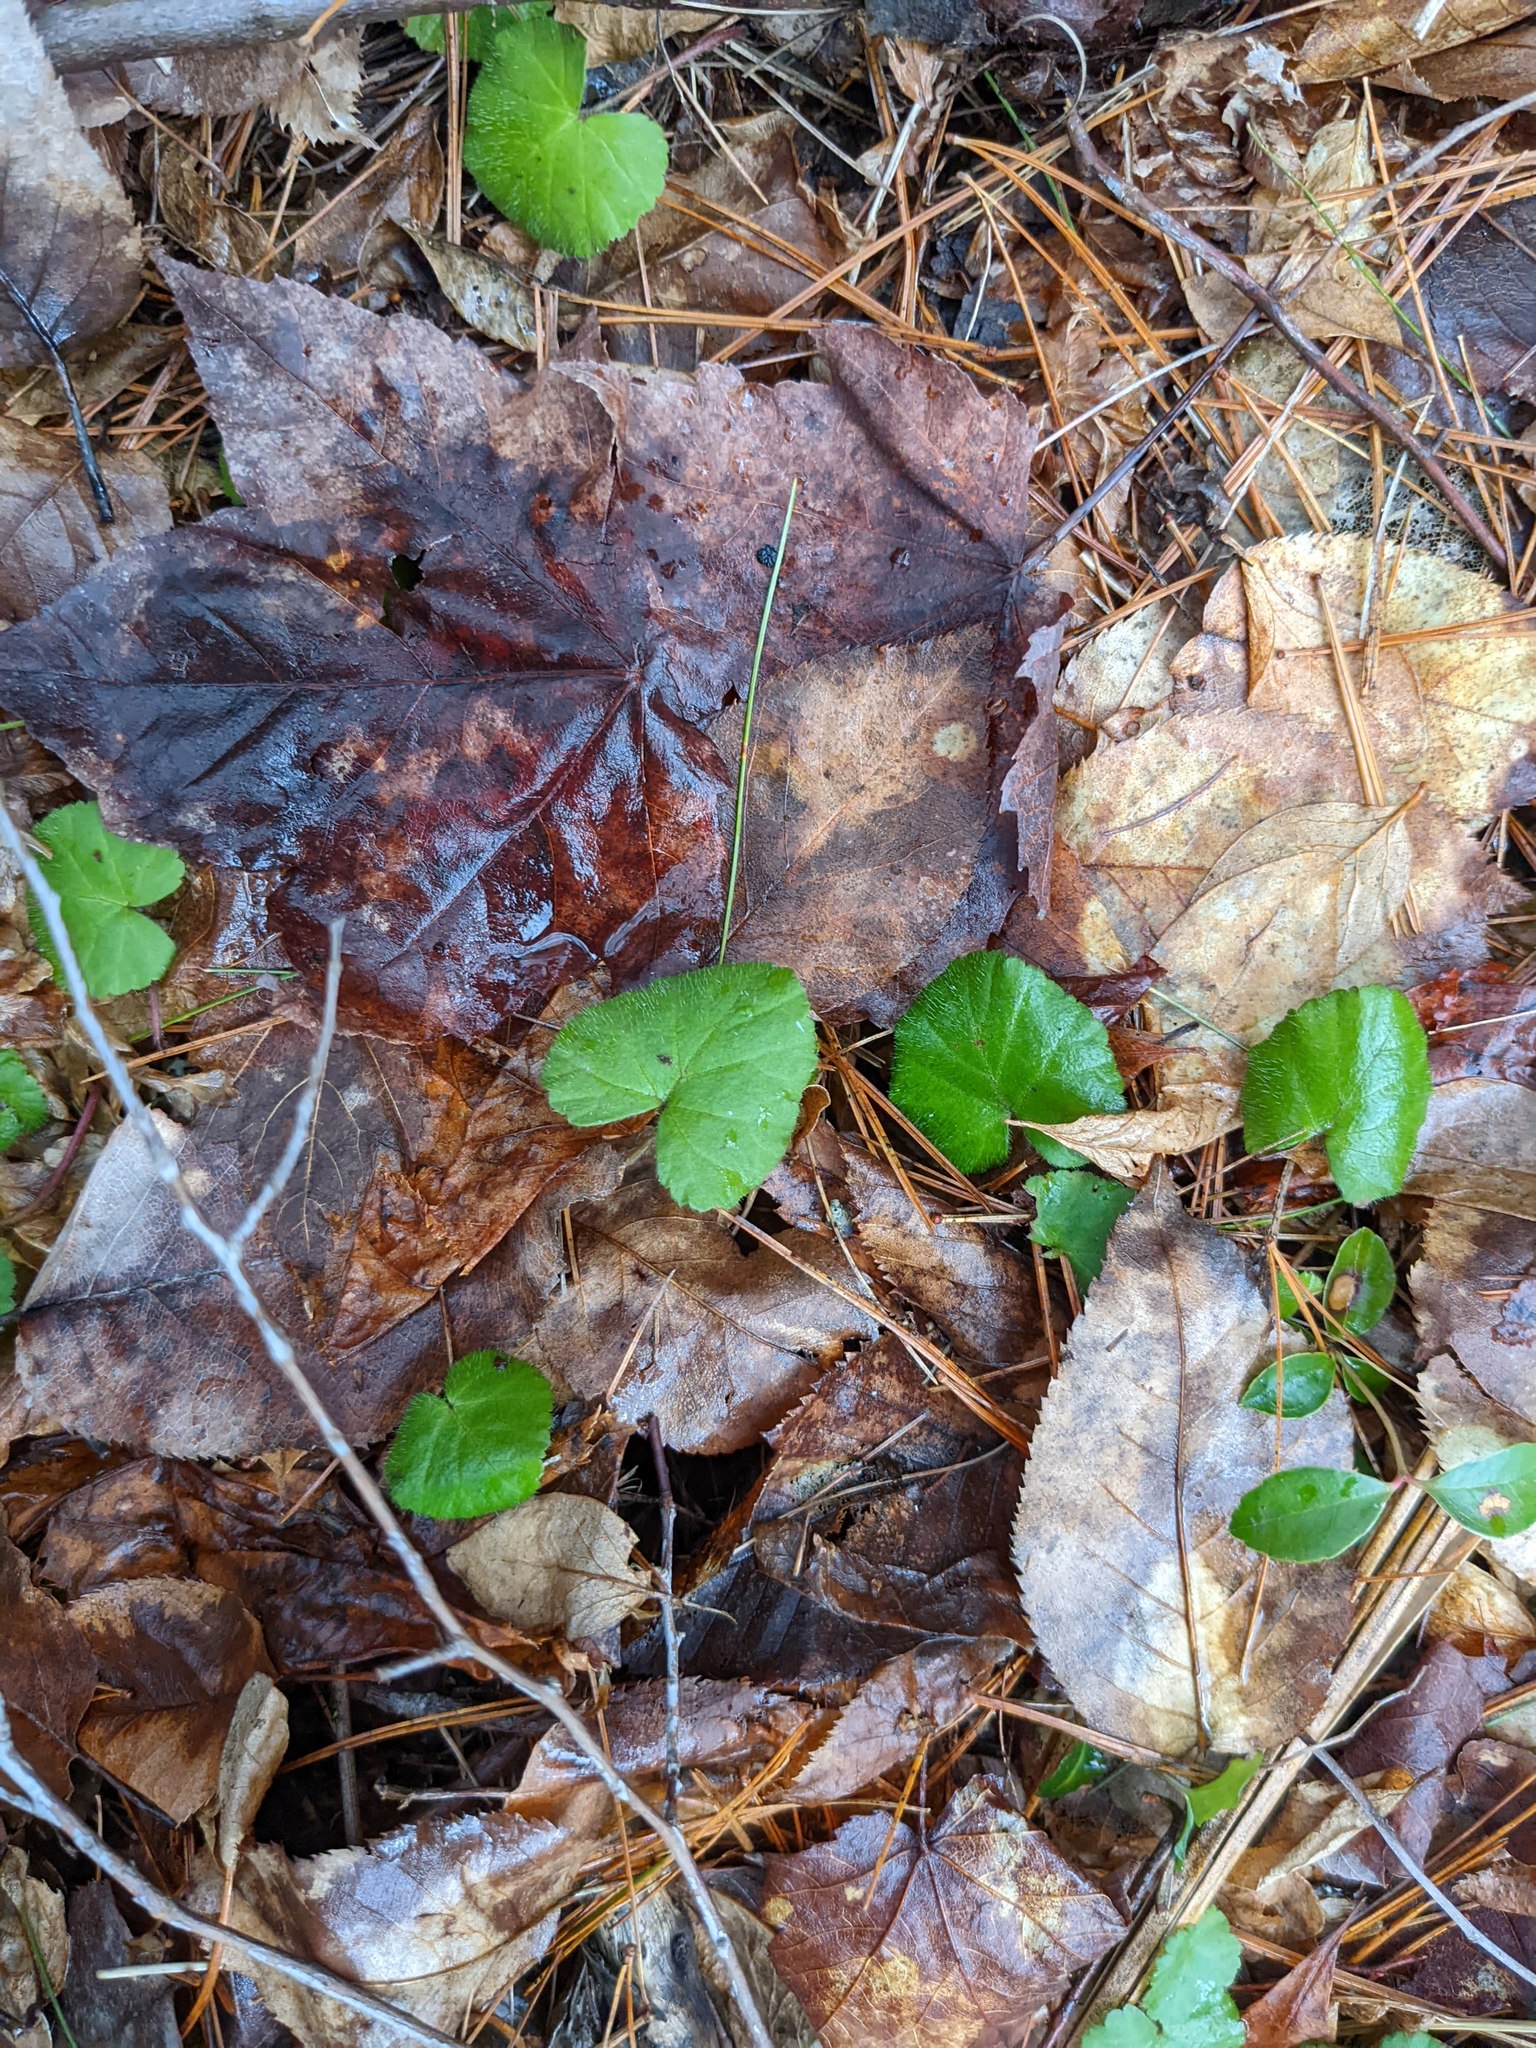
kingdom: Plantae
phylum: Tracheophyta
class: Magnoliopsida
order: Rosales
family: Rosaceae
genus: Dalibarda
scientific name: Dalibarda repens
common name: Dewdrop
